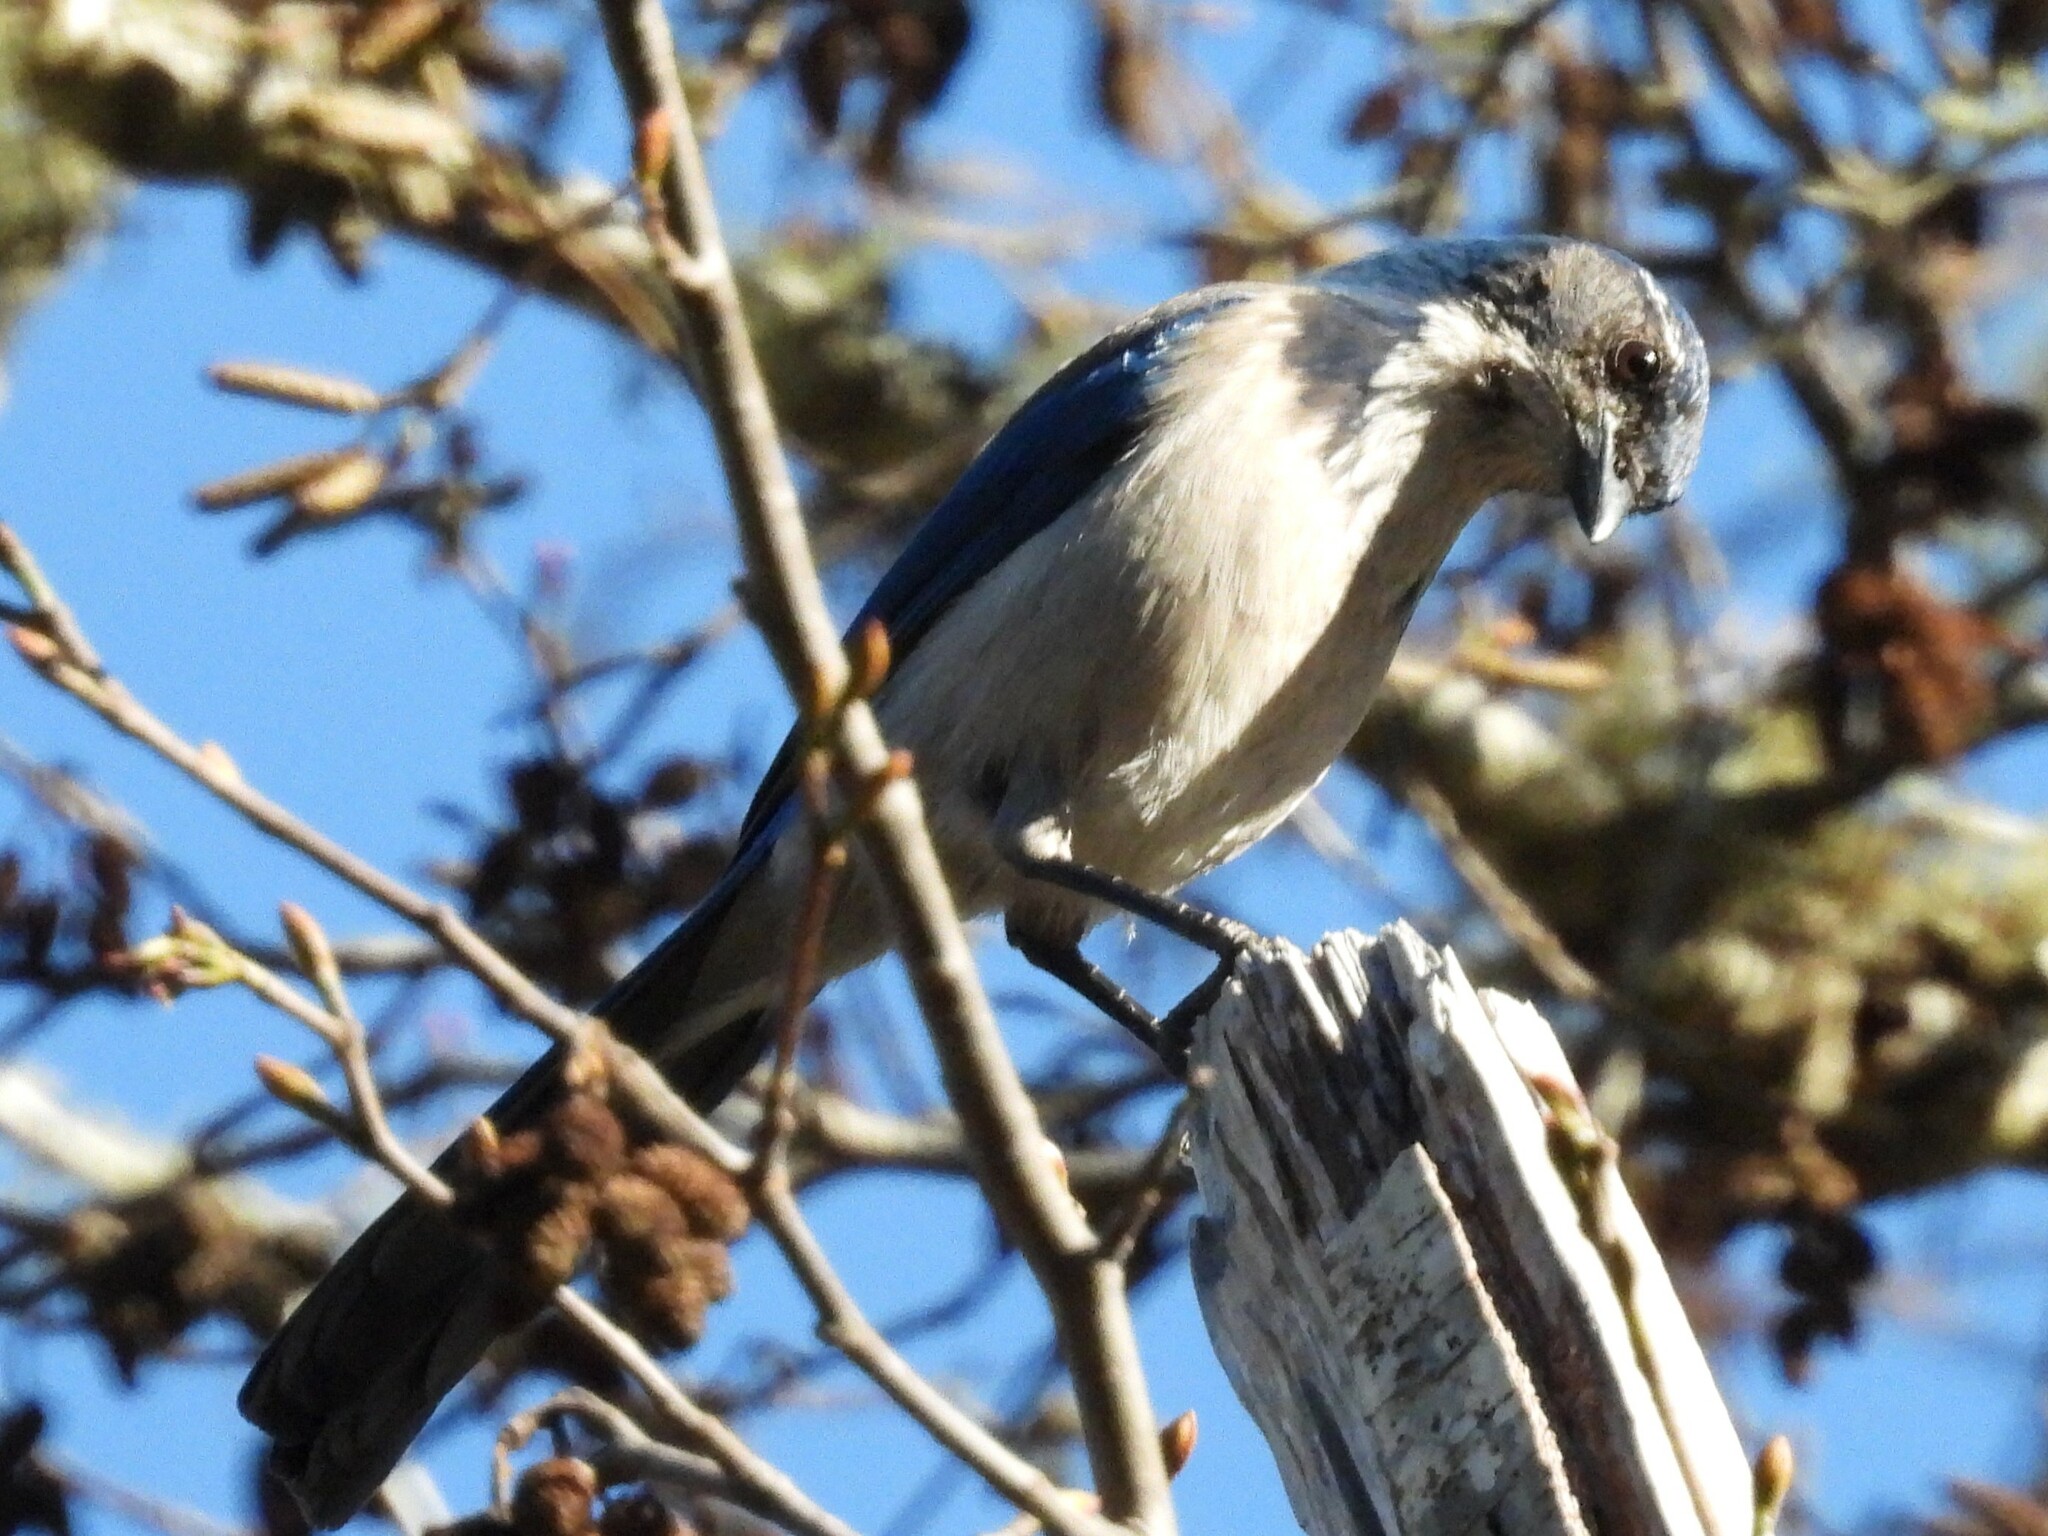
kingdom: Animalia
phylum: Chordata
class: Aves
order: Passeriformes
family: Corvidae
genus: Aphelocoma
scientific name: Aphelocoma californica
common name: California scrub-jay
